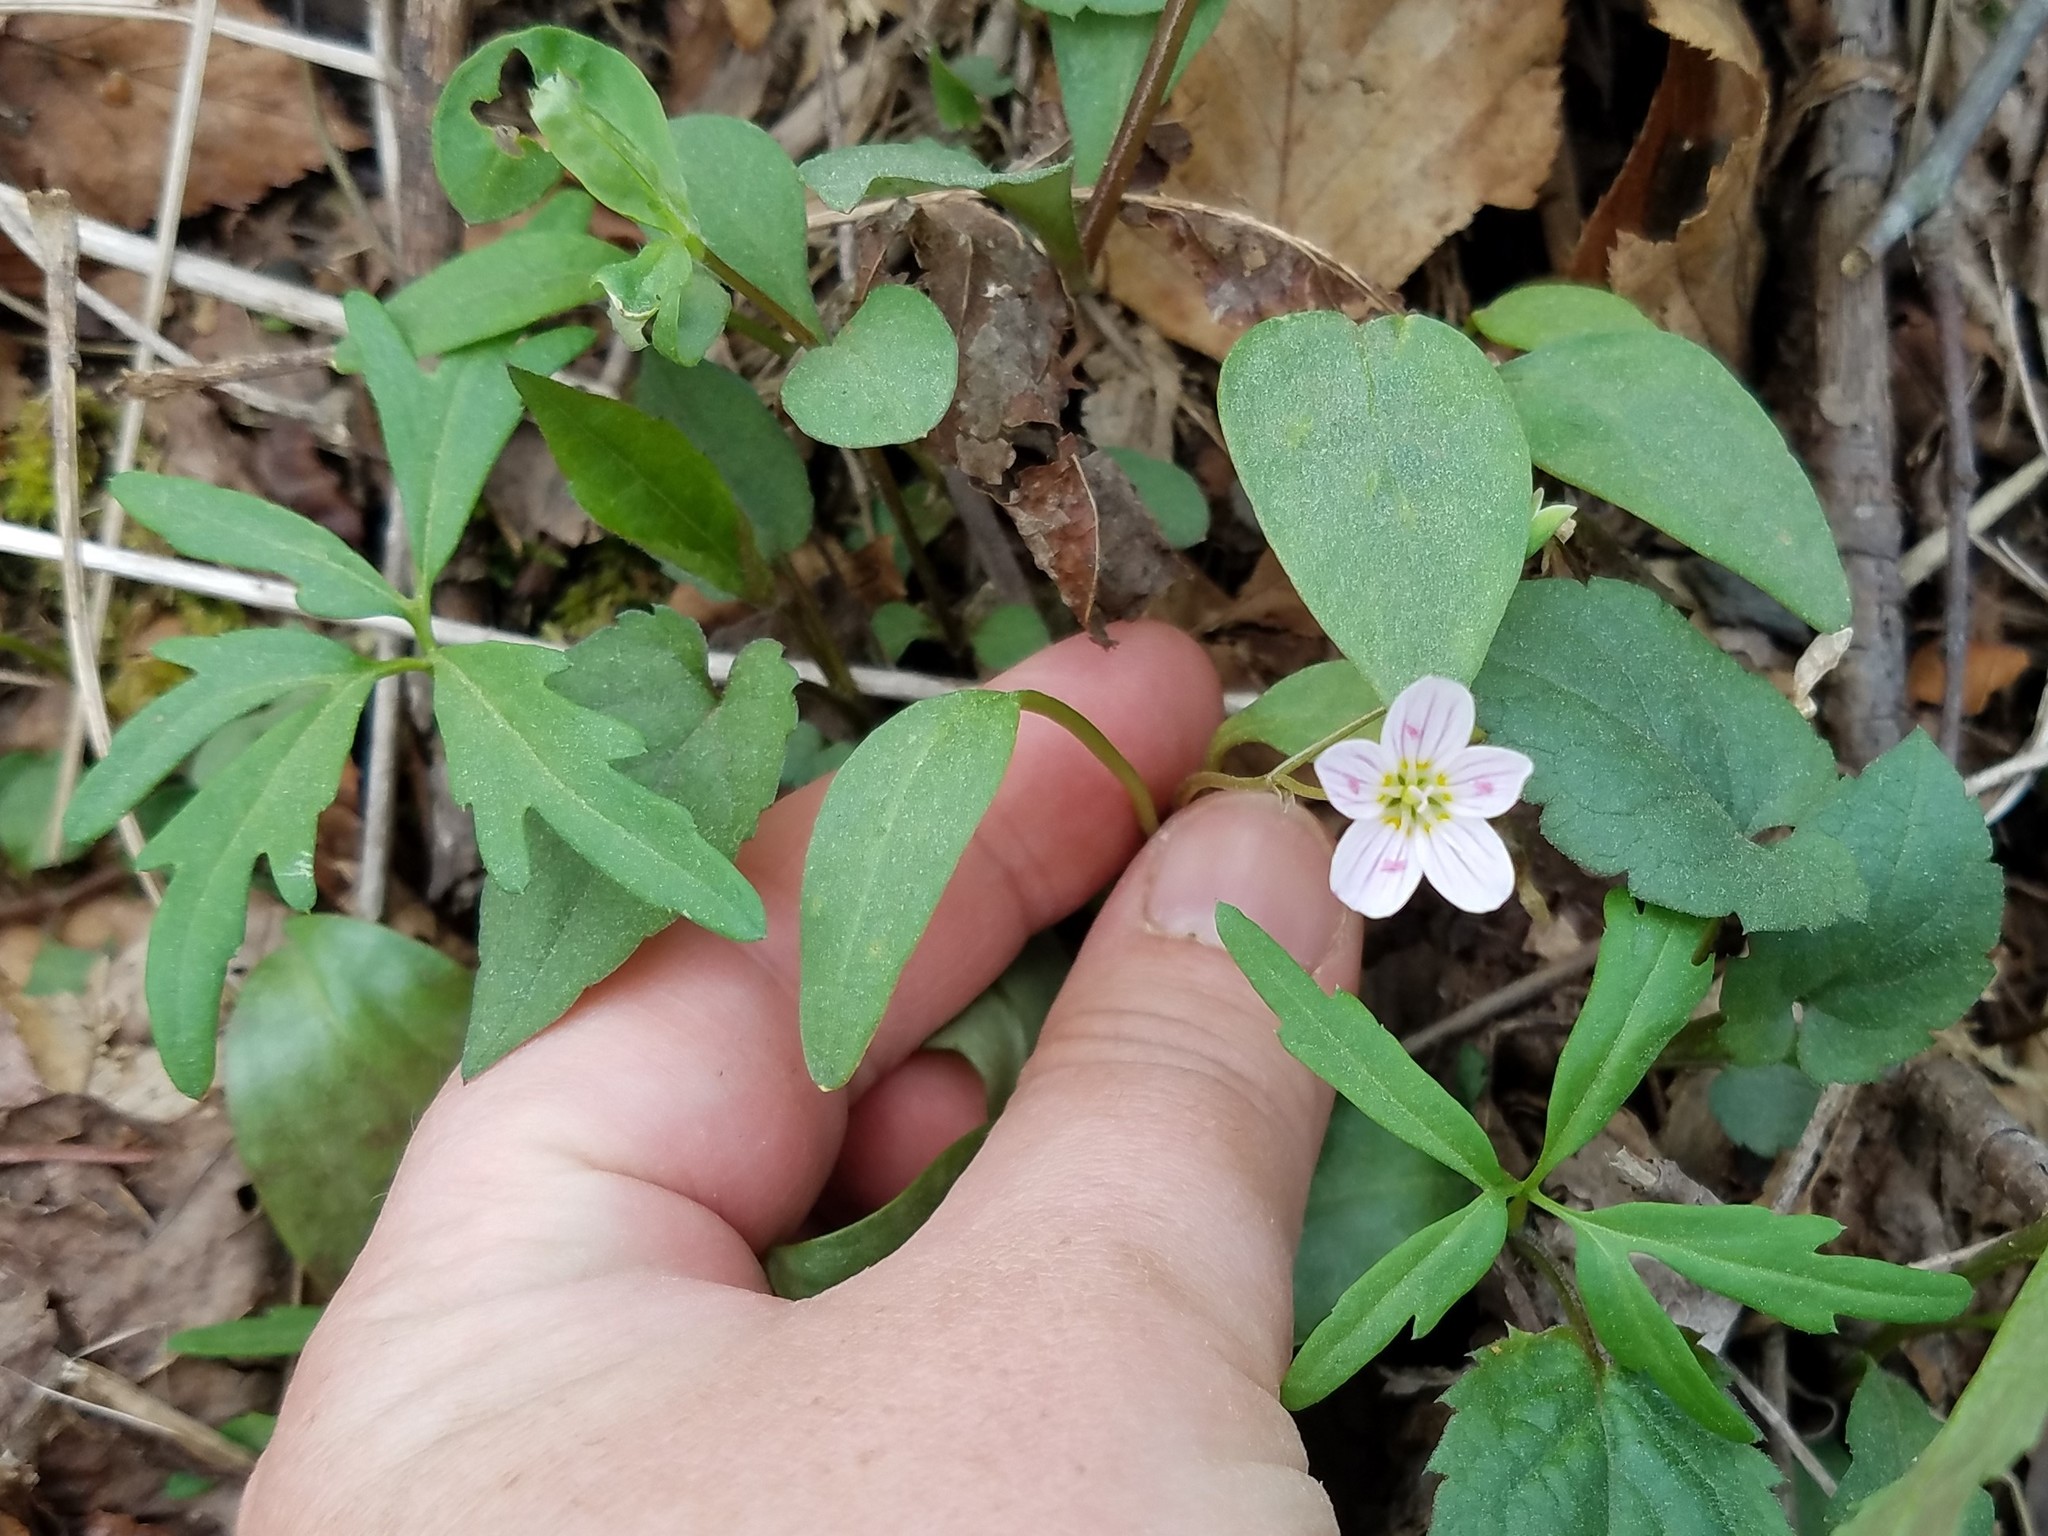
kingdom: Plantae
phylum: Tracheophyta
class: Magnoliopsida
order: Caryophyllales
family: Montiaceae
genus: Claytonia
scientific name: Claytonia caroliniana
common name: Carolina spring beauty
